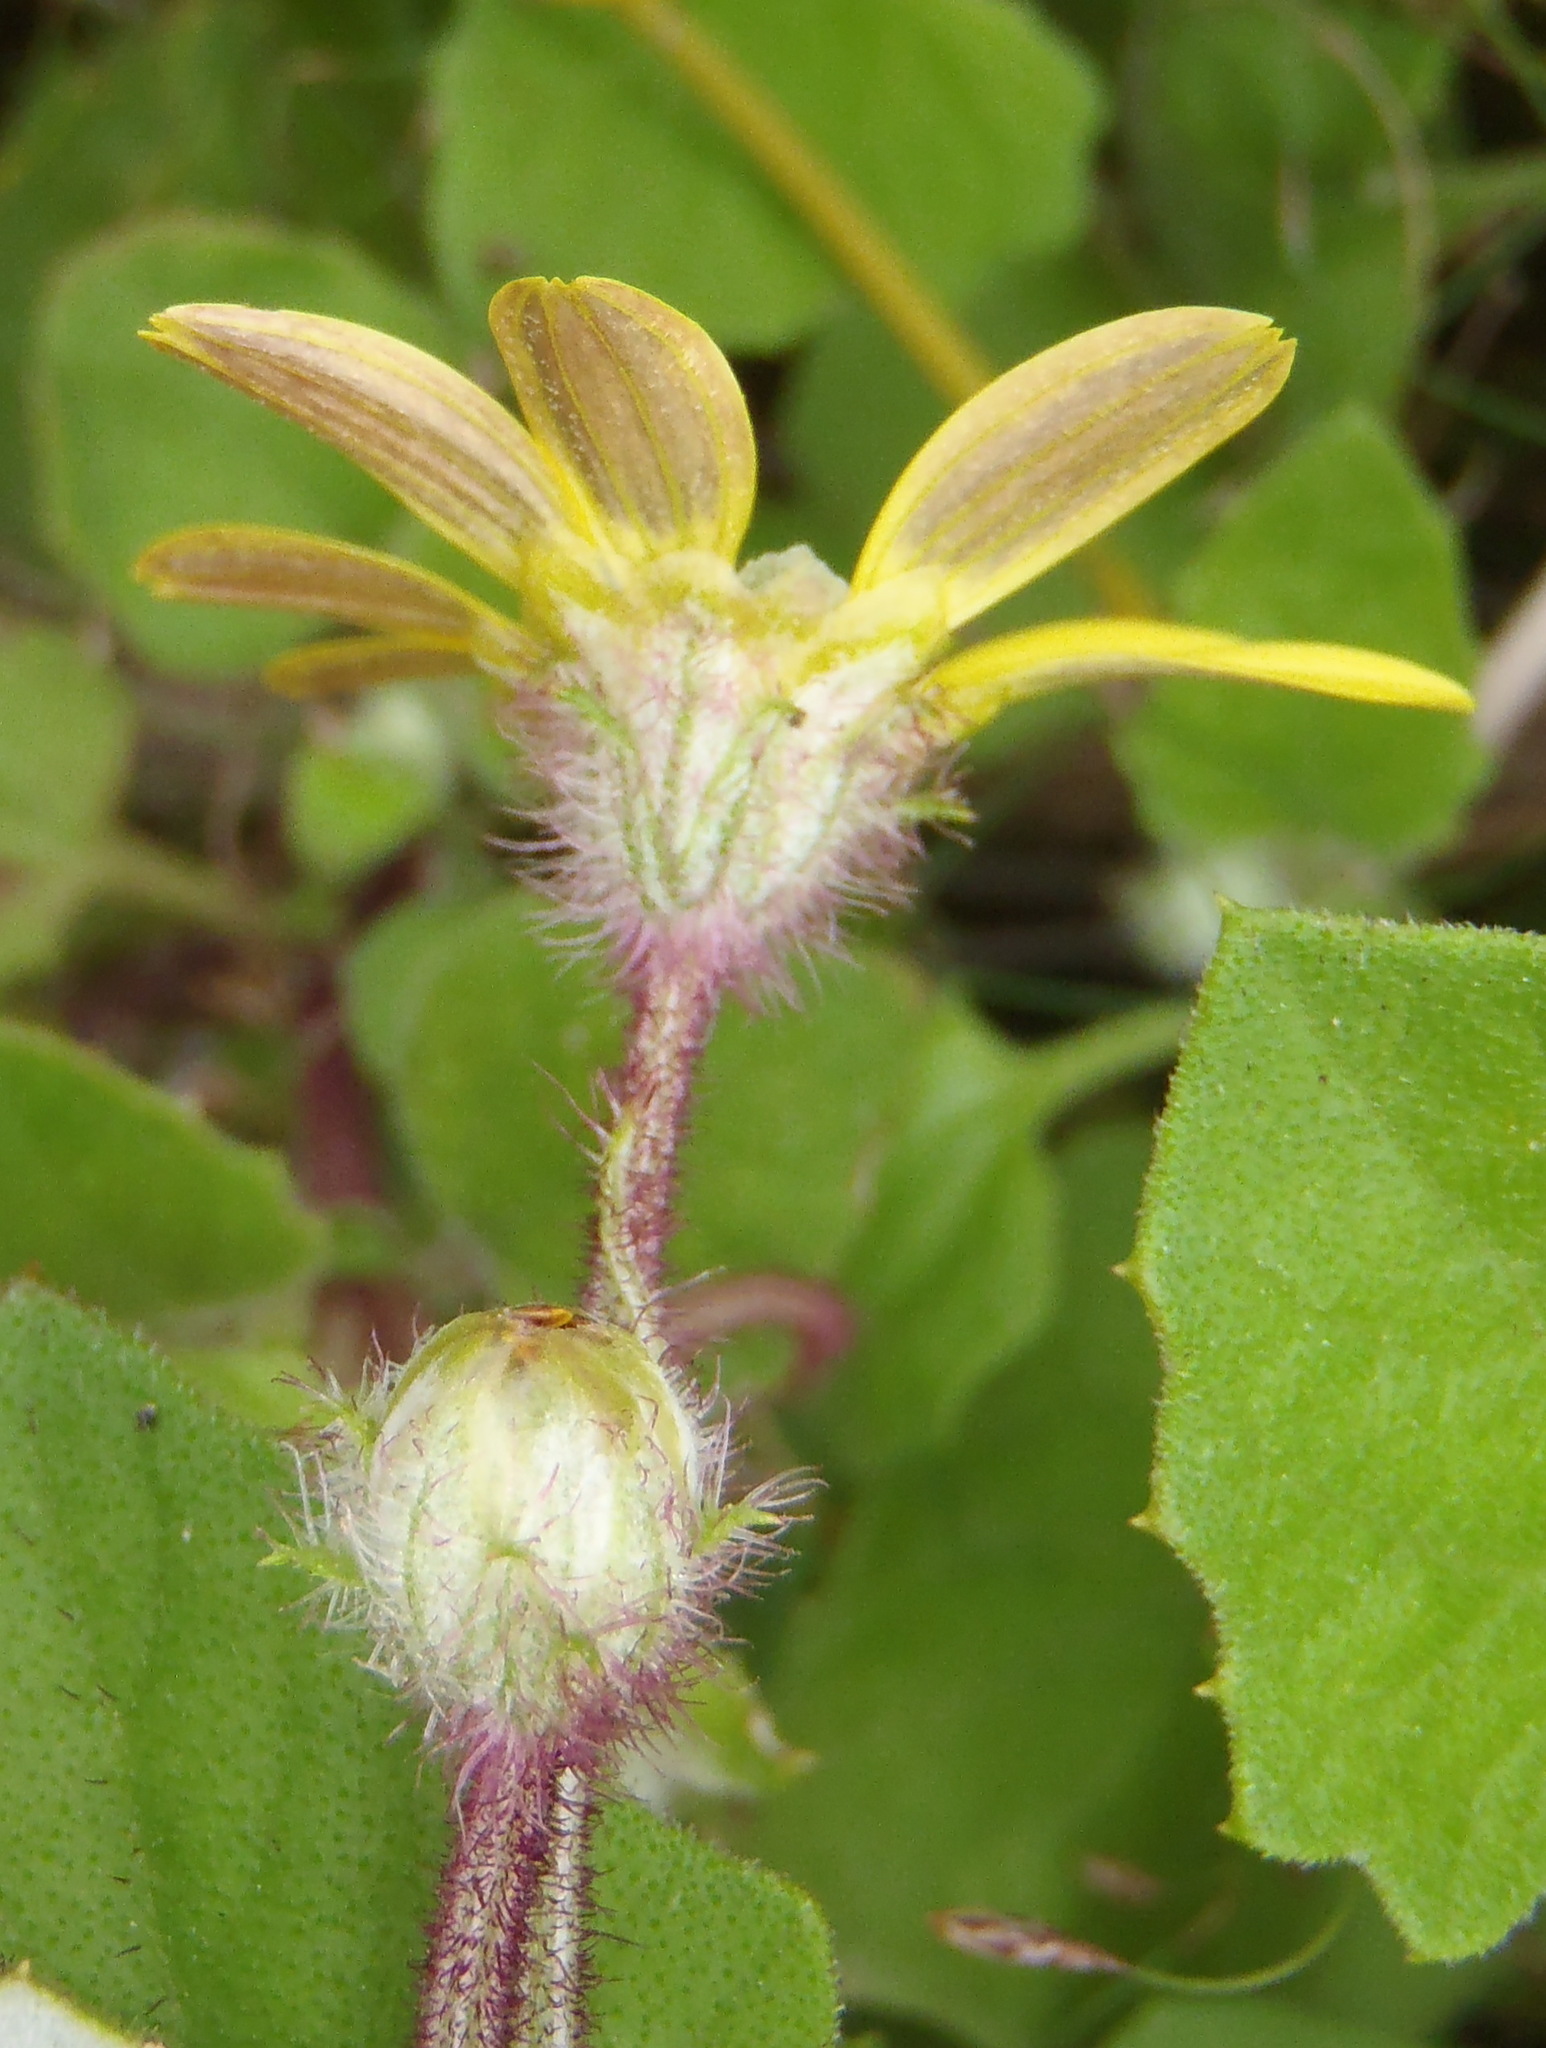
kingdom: Plantae
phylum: Tracheophyta
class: Magnoliopsida
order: Asterales
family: Asteraceae
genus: Arctotis
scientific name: Arctotis perfoliata
